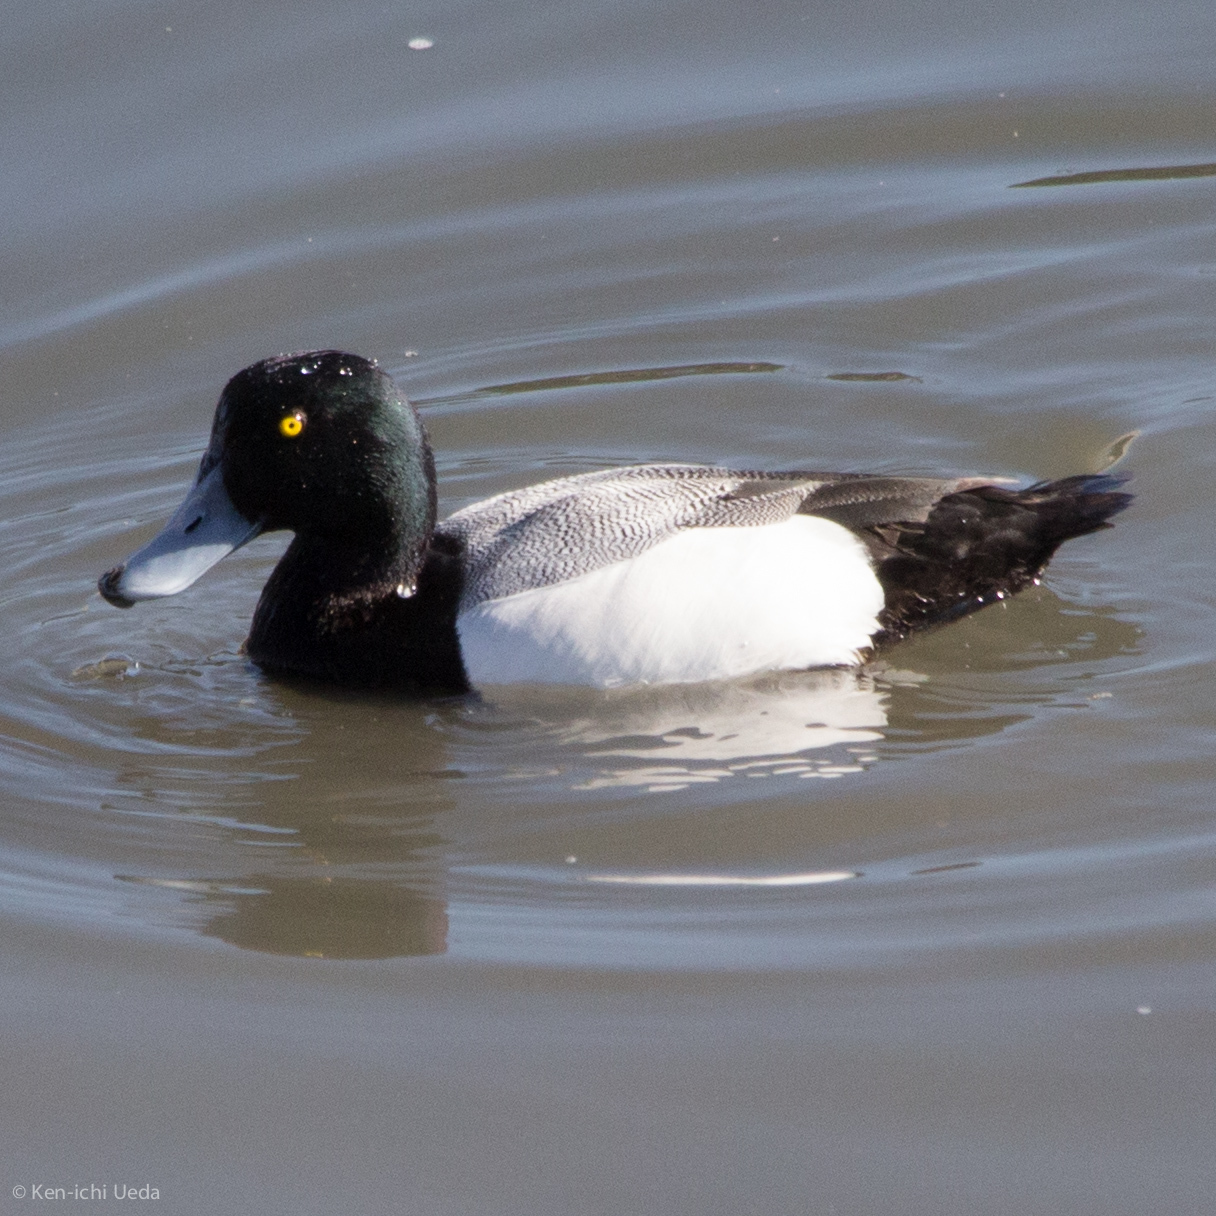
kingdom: Animalia
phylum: Chordata
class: Aves
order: Anseriformes
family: Anatidae
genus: Aythya
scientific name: Aythya marila
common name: Greater scaup
